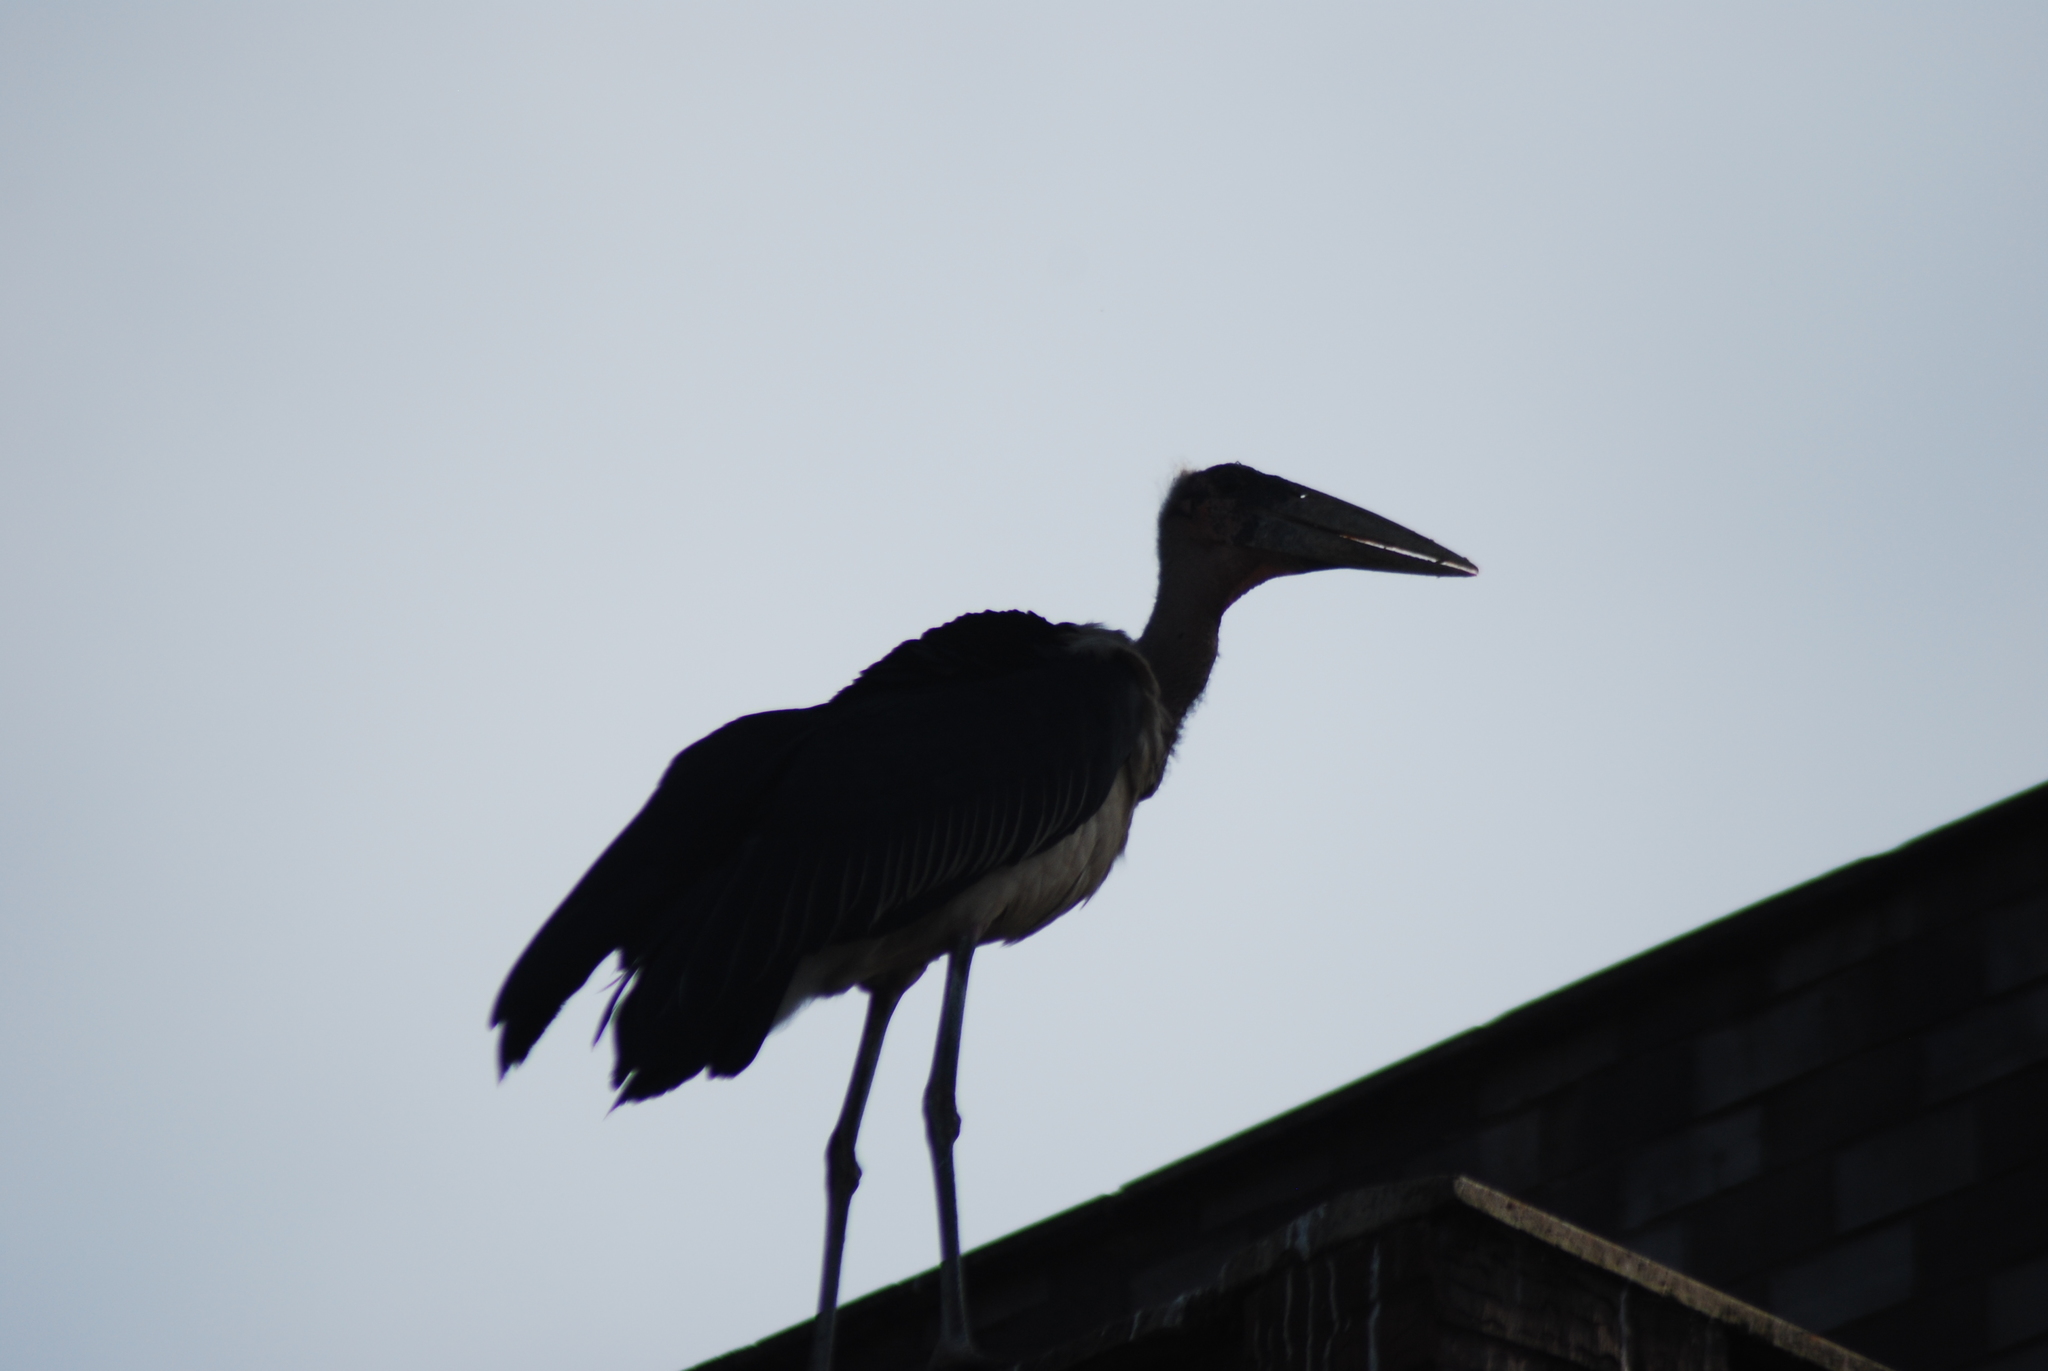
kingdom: Animalia
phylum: Chordata
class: Aves
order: Ciconiiformes
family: Ciconiidae
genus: Leptoptilos
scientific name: Leptoptilos crumenifer
